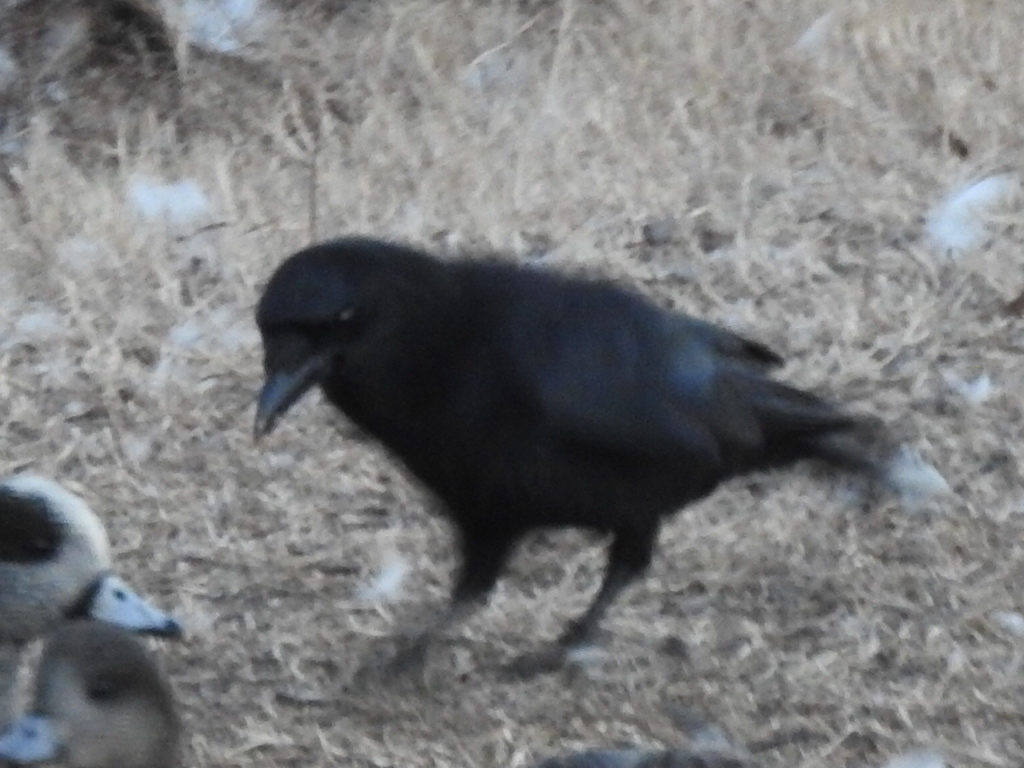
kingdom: Animalia
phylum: Chordata
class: Aves
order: Passeriformes
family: Corvidae
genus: Corvus
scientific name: Corvus brachyrhynchos
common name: American crow
